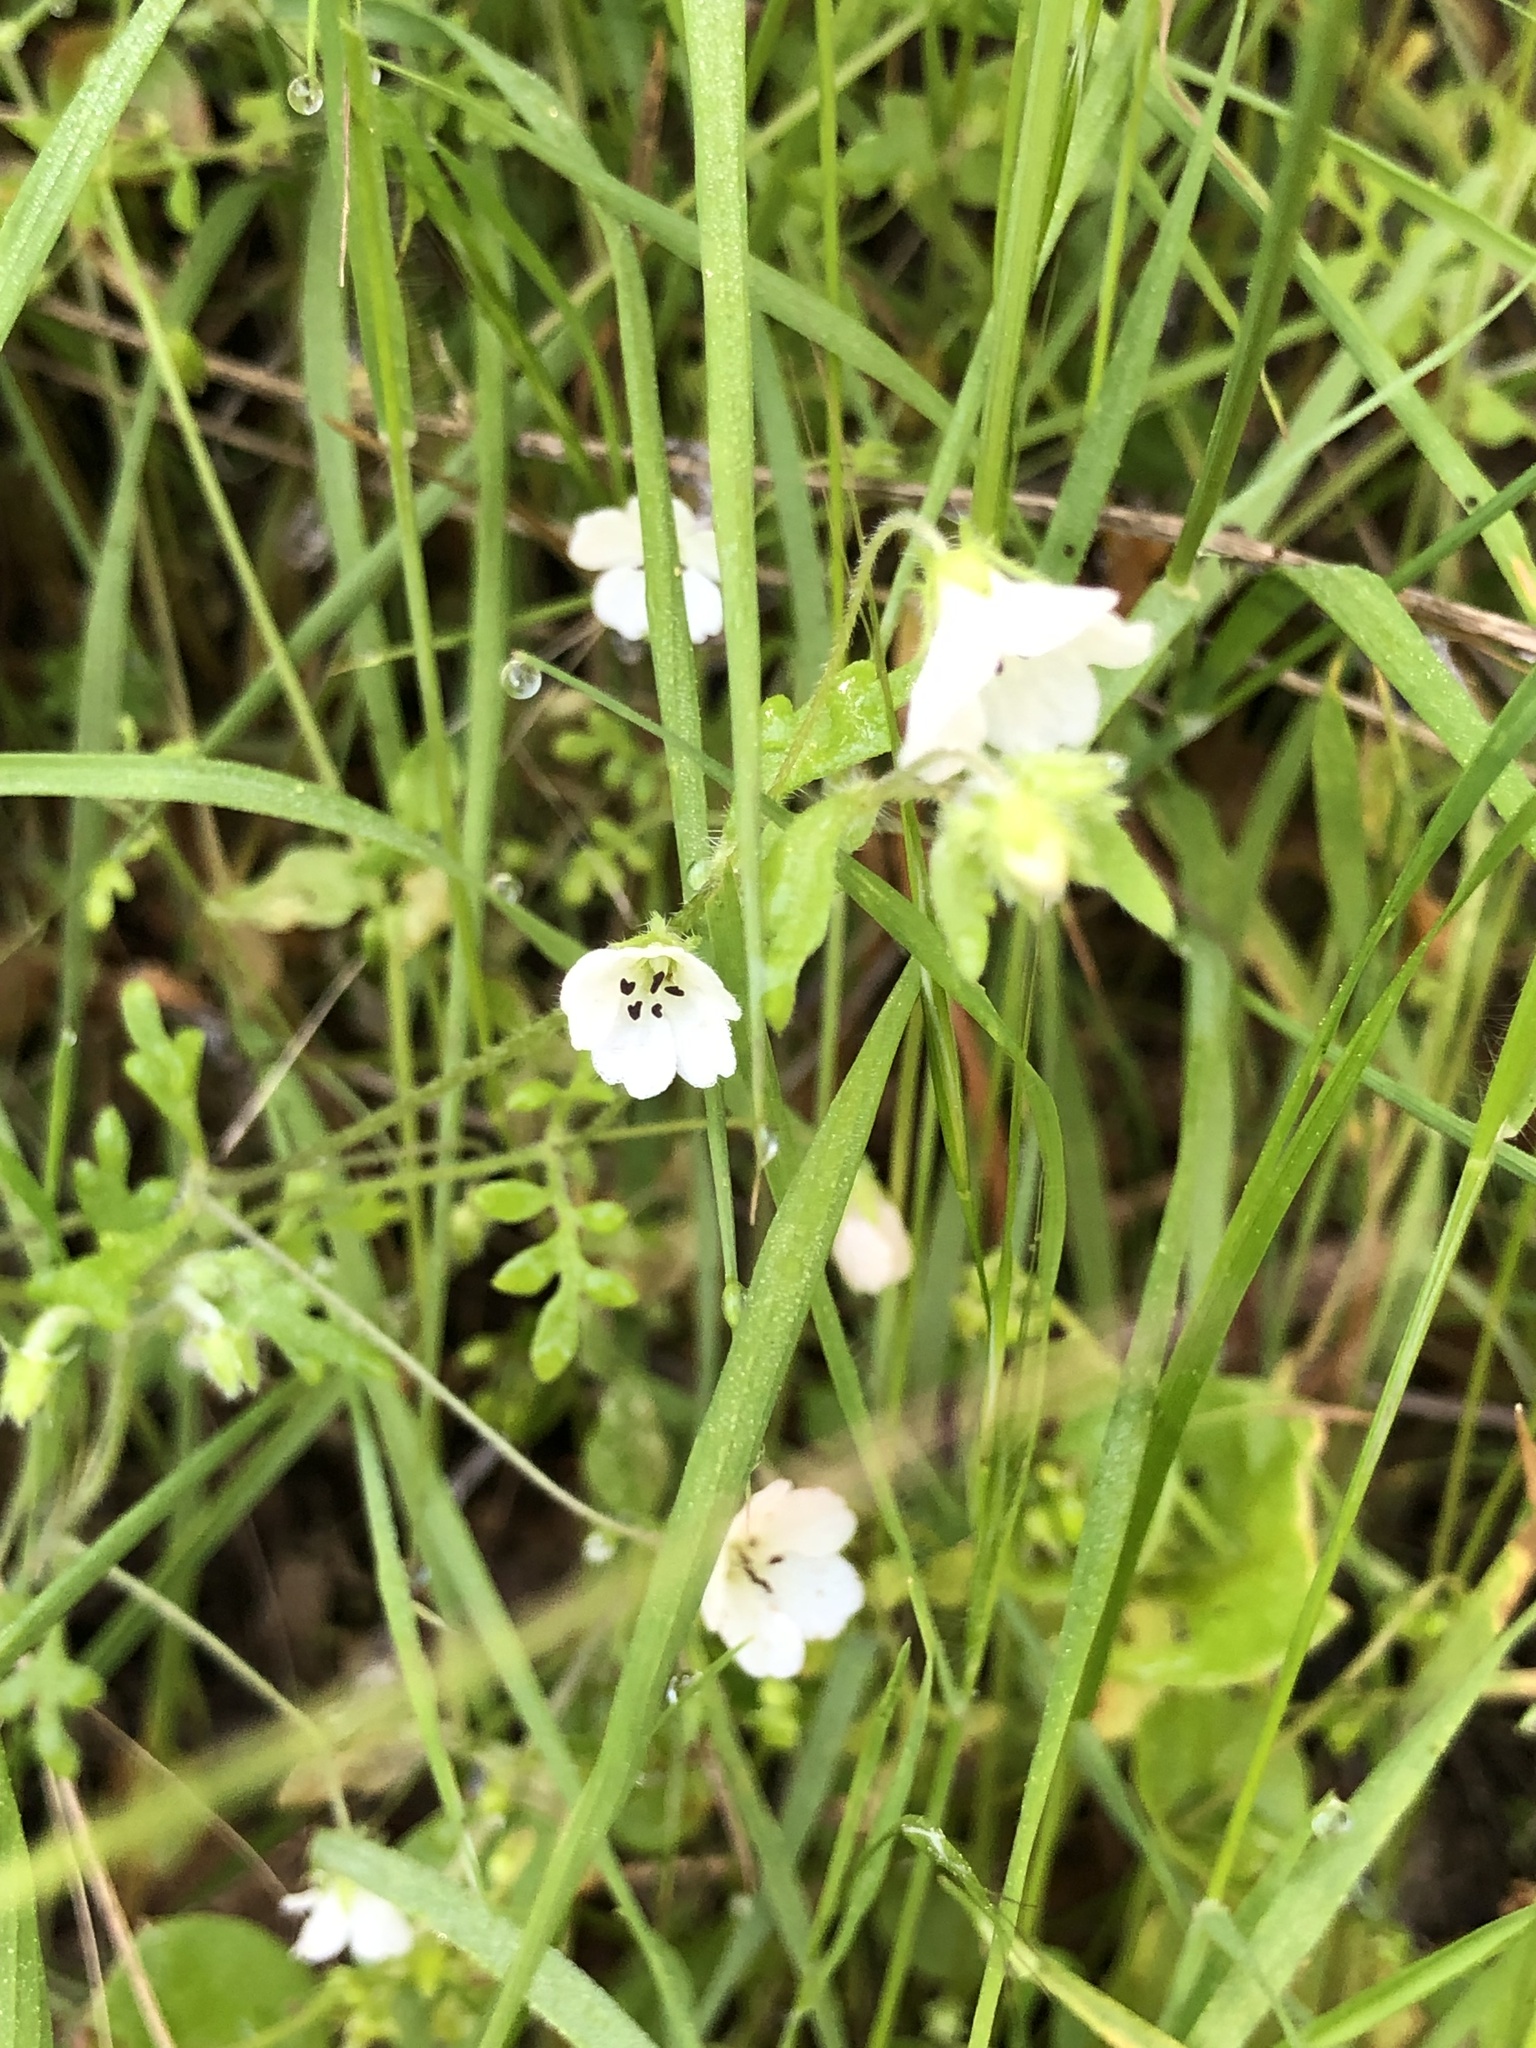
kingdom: Plantae
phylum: Tracheophyta
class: Magnoliopsida
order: Boraginales
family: Hydrophyllaceae
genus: Nemophila
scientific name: Nemophila heterophylla
